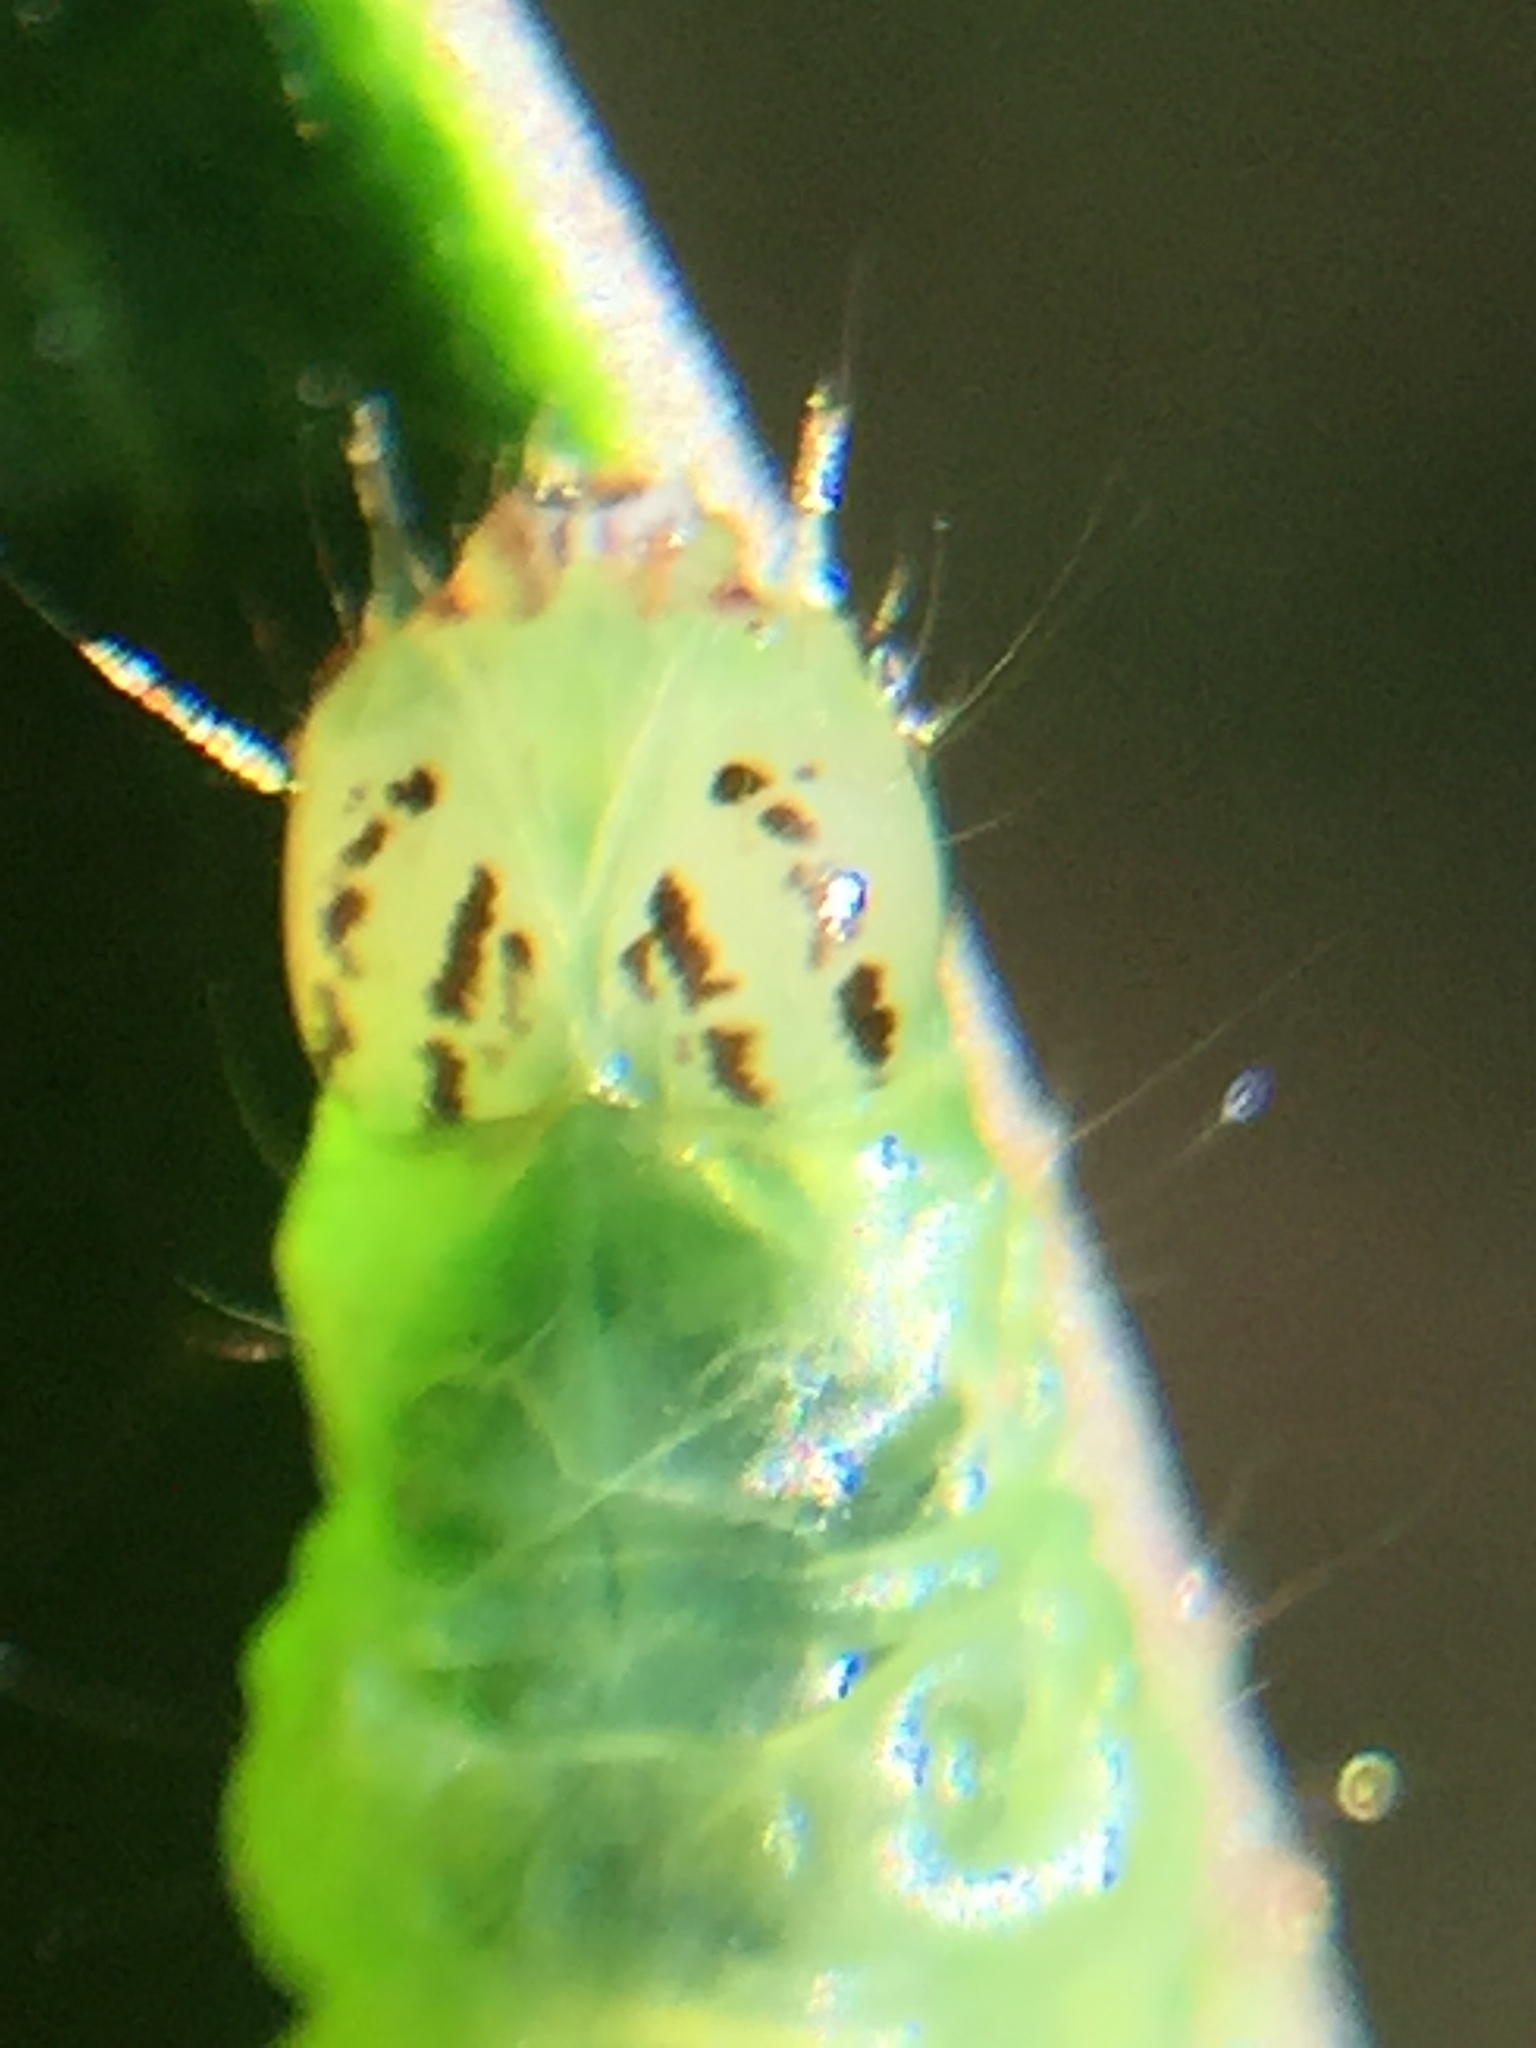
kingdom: Animalia
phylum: Arthropoda
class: Insecta
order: Lepidoptera
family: Tortricidae
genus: Epalxiphora
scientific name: Epalxiphora axenana
